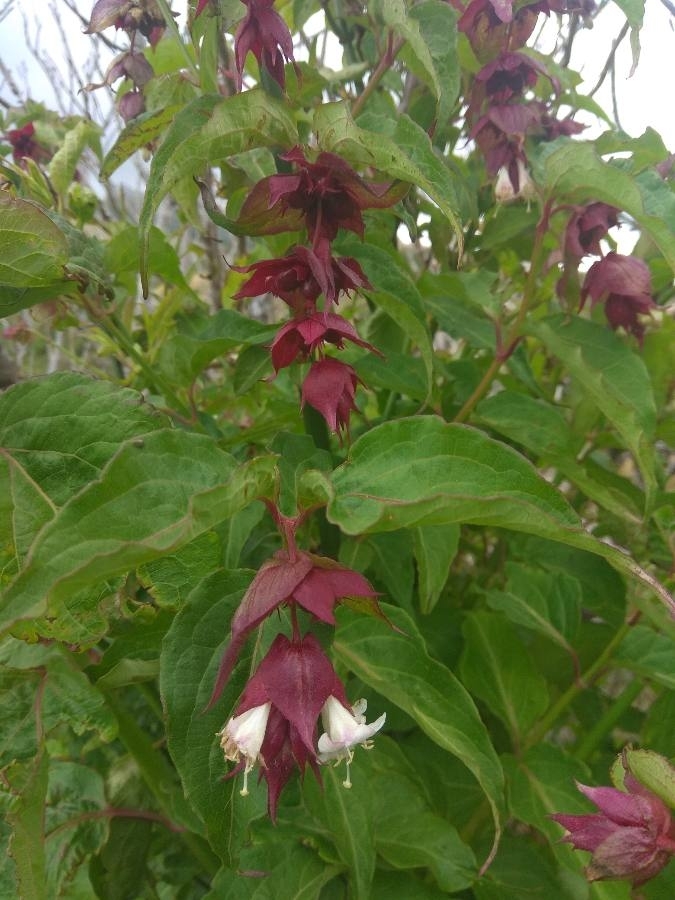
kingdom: Plantae
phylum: Tracheophyta
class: Magnoliopsida
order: Dipsacales
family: Caprifoliaceae
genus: Leycesteria
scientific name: Leycesteria formosa
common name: Himalayan honeysuckle
